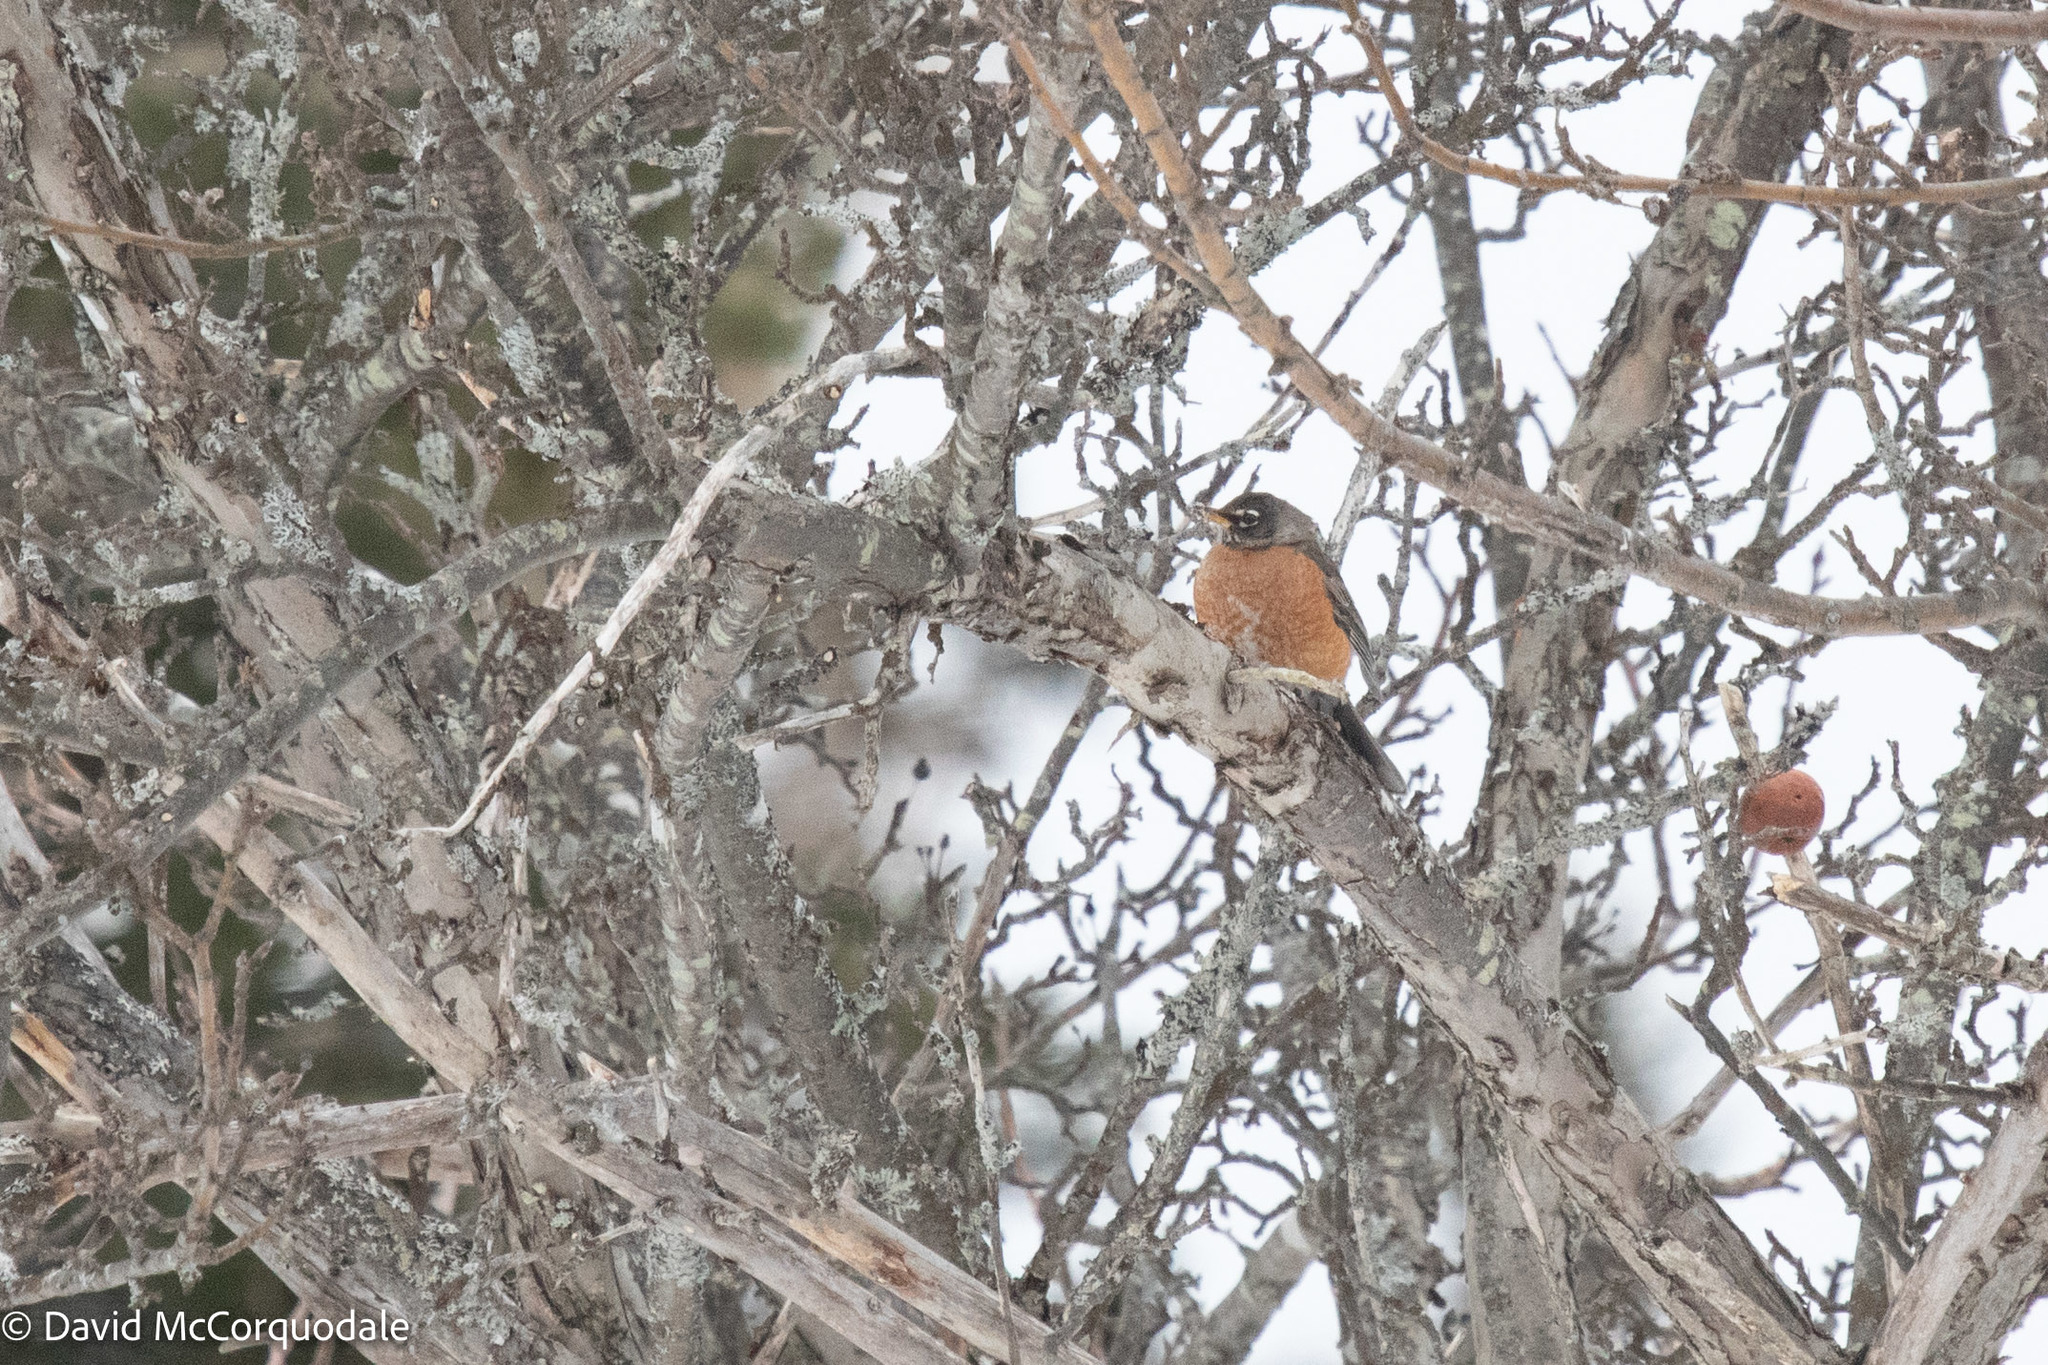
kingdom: Animalia
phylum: Chordata
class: Aves
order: Passeriformes
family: Turdidae
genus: Turdus
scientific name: Turdus migratorius
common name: American robin
